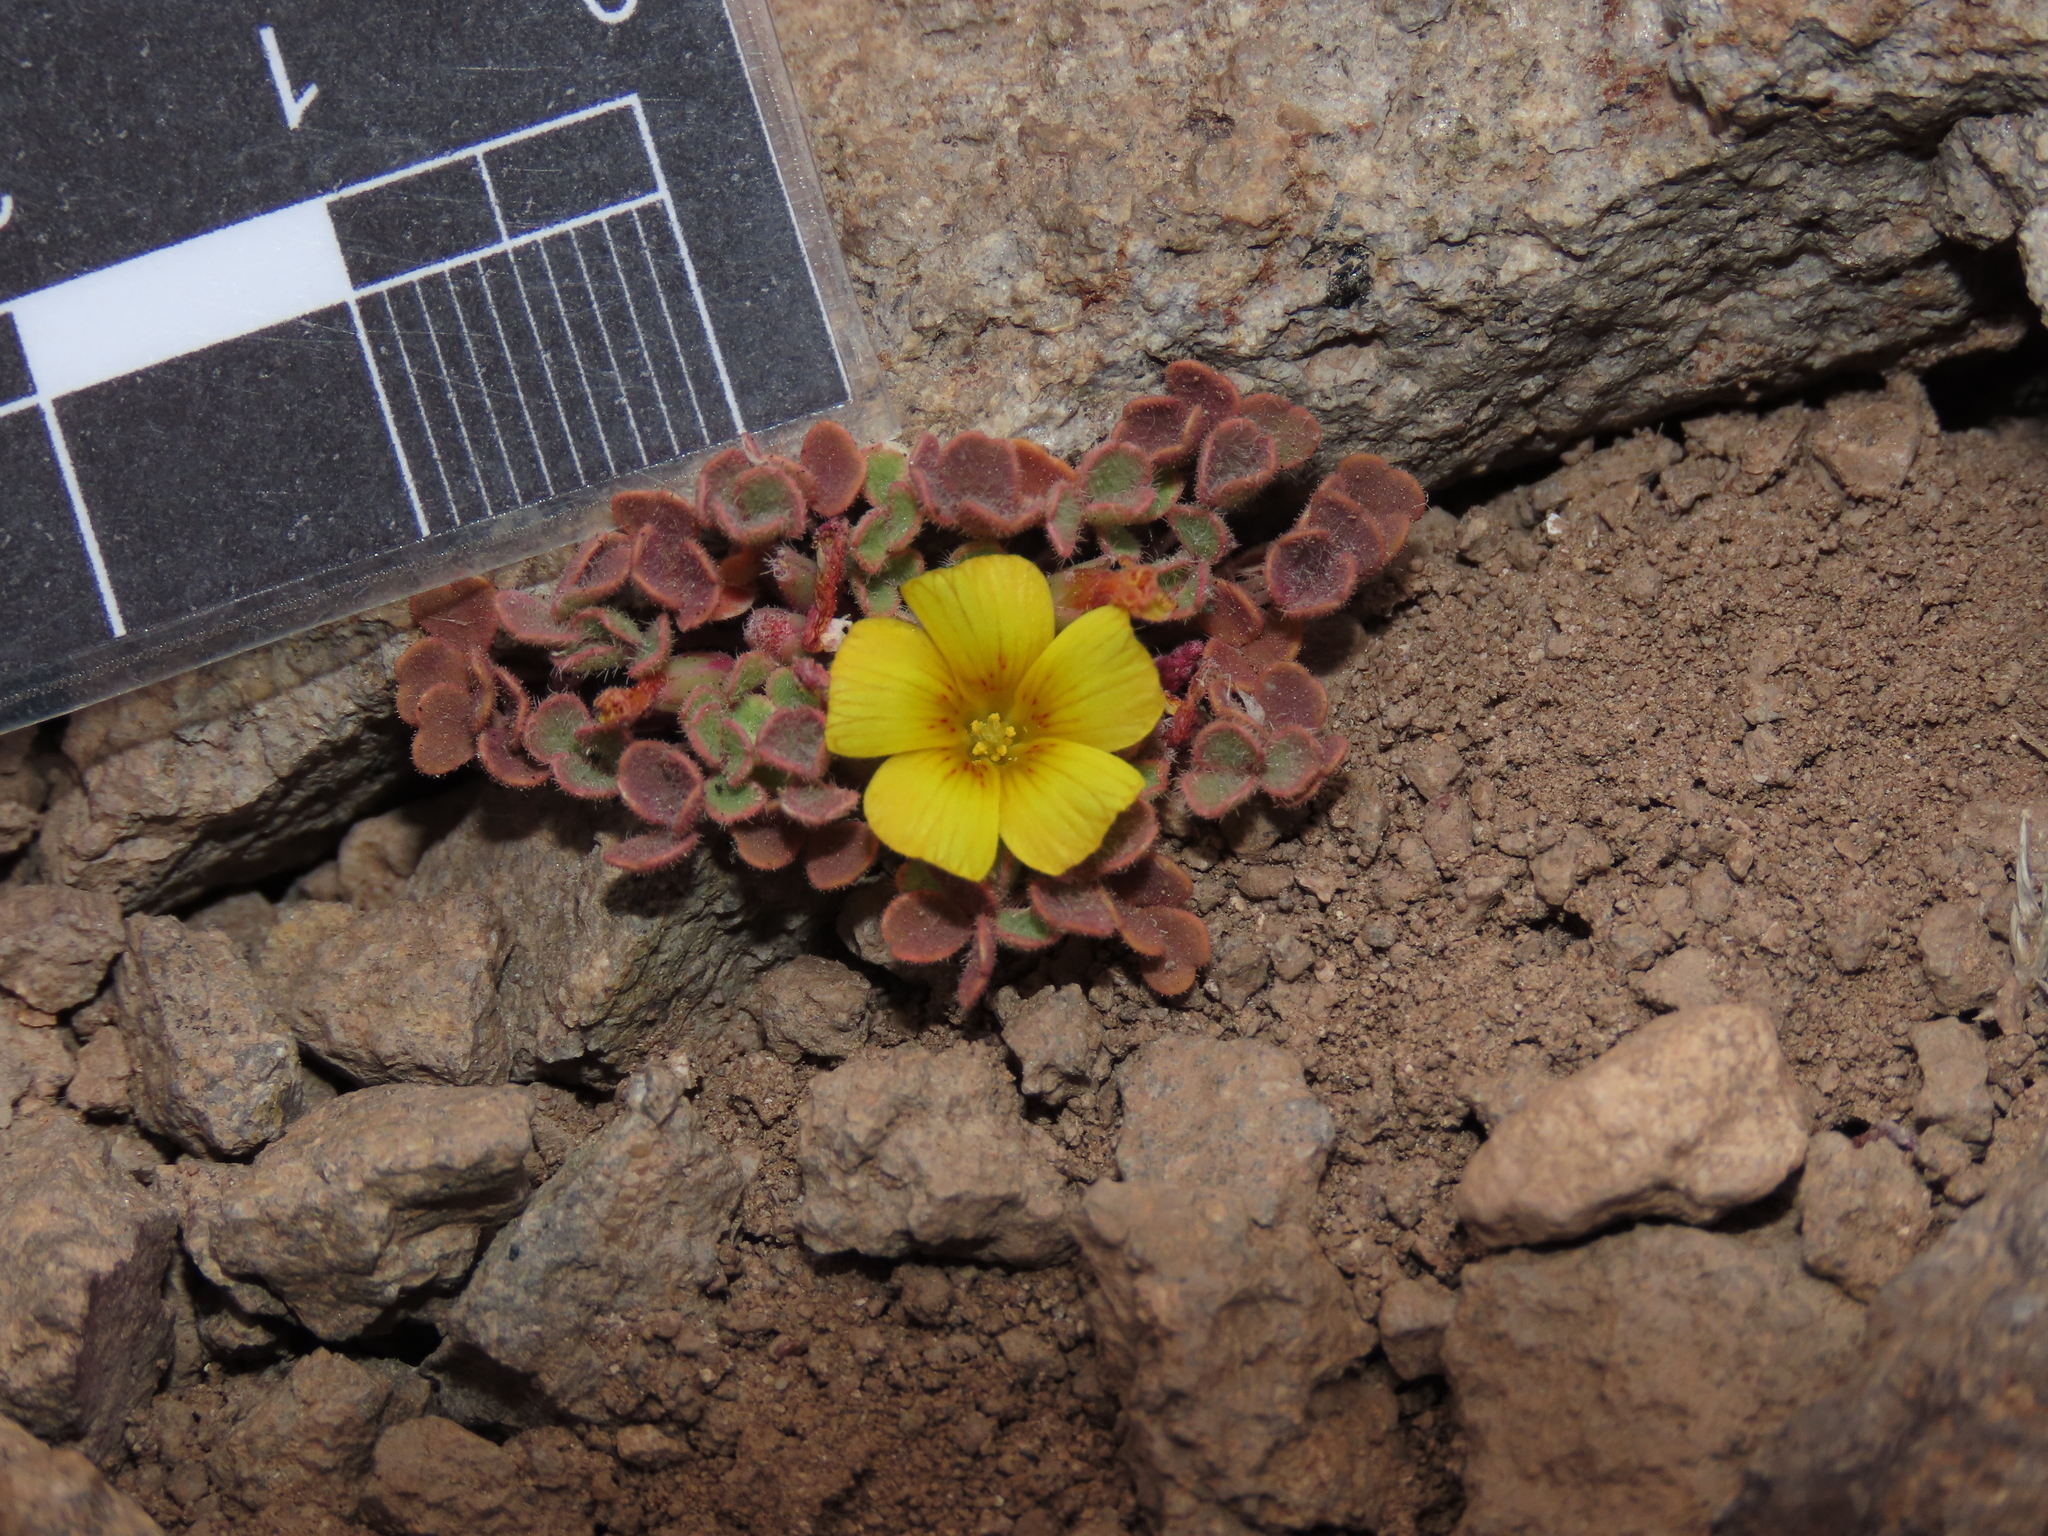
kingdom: Plantae
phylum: Tracheophyta
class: Magnoliopsida
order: Oxalidales
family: Oxalidaceae
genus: Oxalis
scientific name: Oxalis compacta
